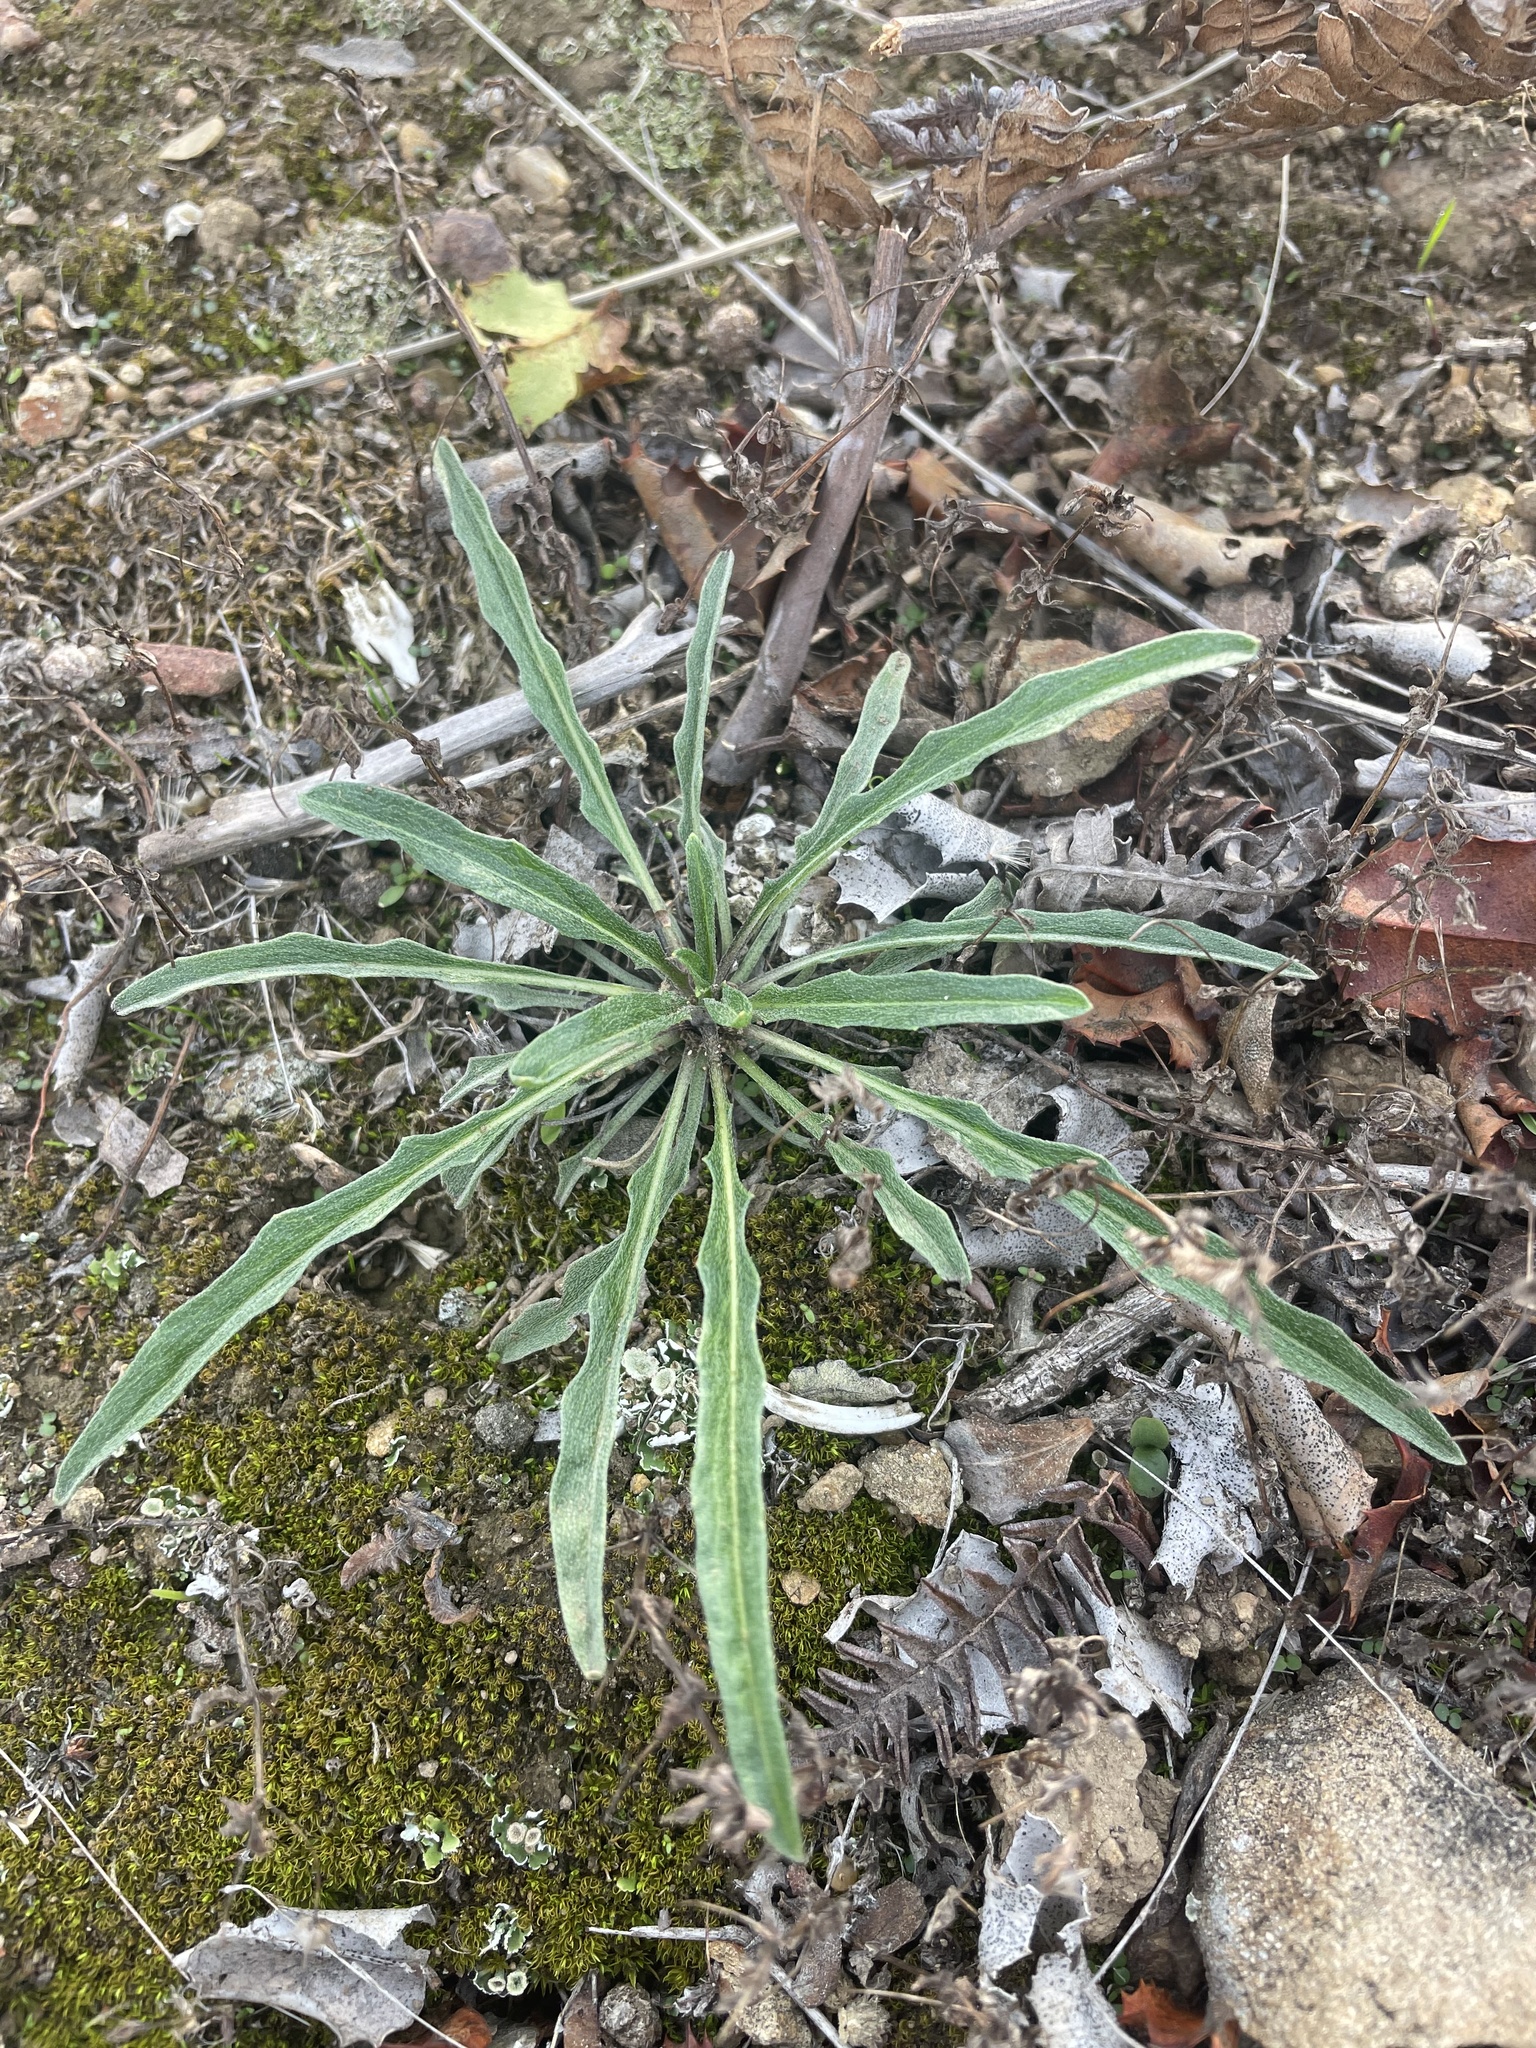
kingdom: Plantae
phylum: Tracheophyta
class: Magnoliopsida
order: Brassicales
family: Brassicaceae
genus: Erysimum
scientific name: Erysimum franciscanum
